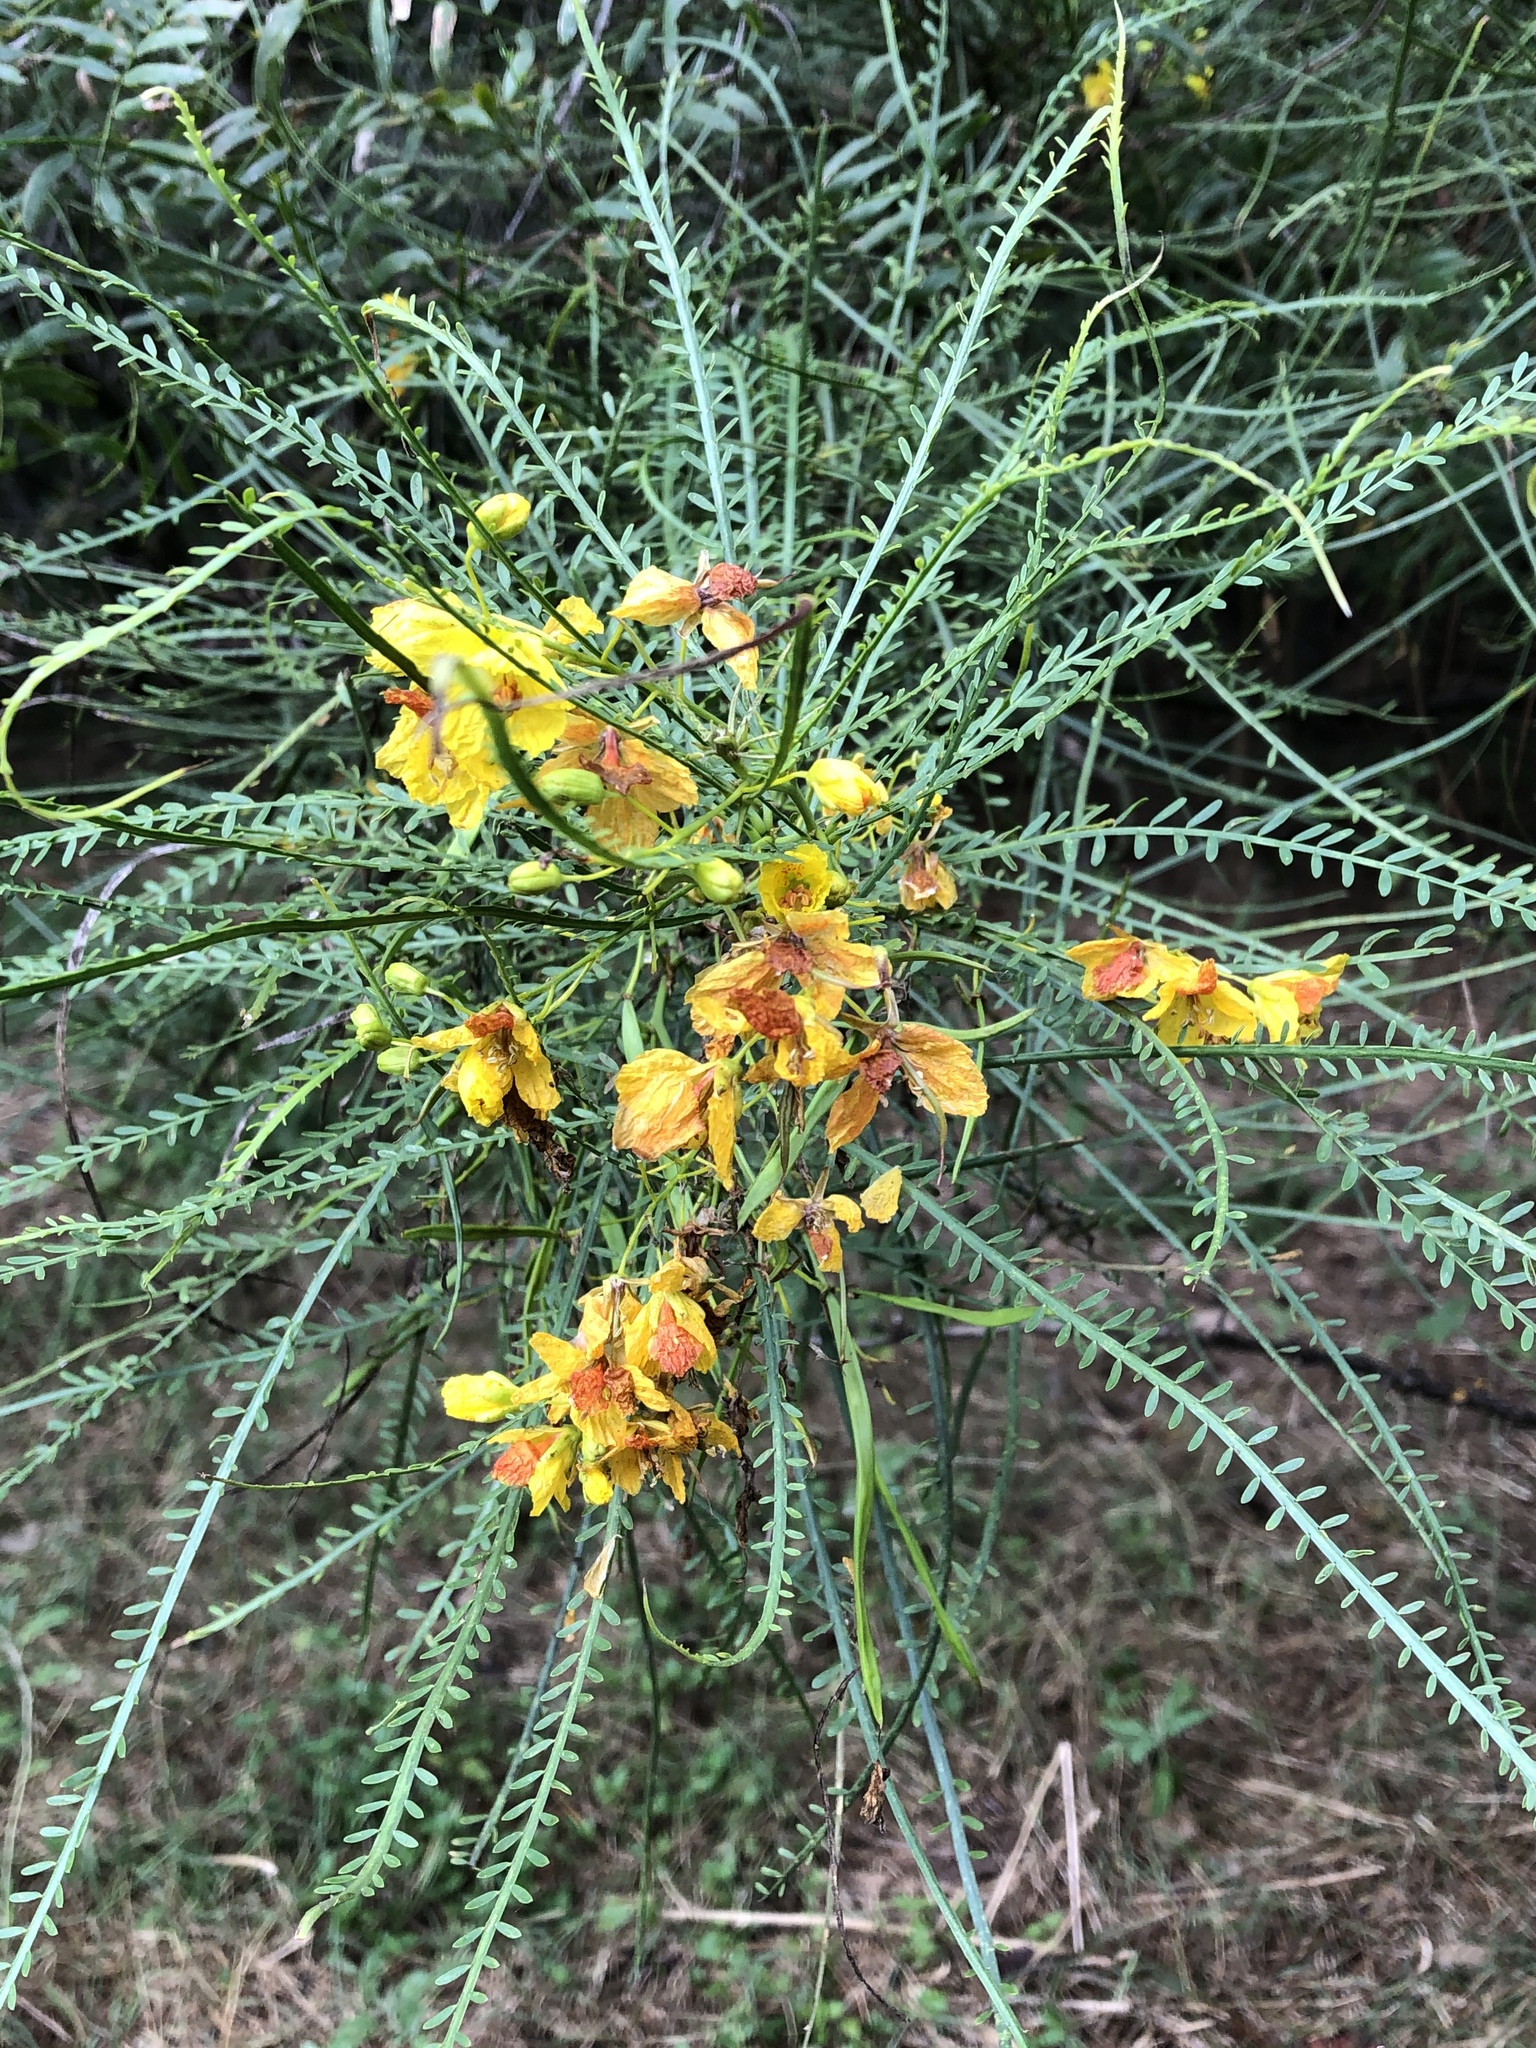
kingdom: Plantae
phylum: Tracheophyta
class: Magnoliopsida
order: Fabales
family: Fabaceae
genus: Parkinsonia
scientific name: Parkinsonia aculeata
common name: Jerusalem thorn
